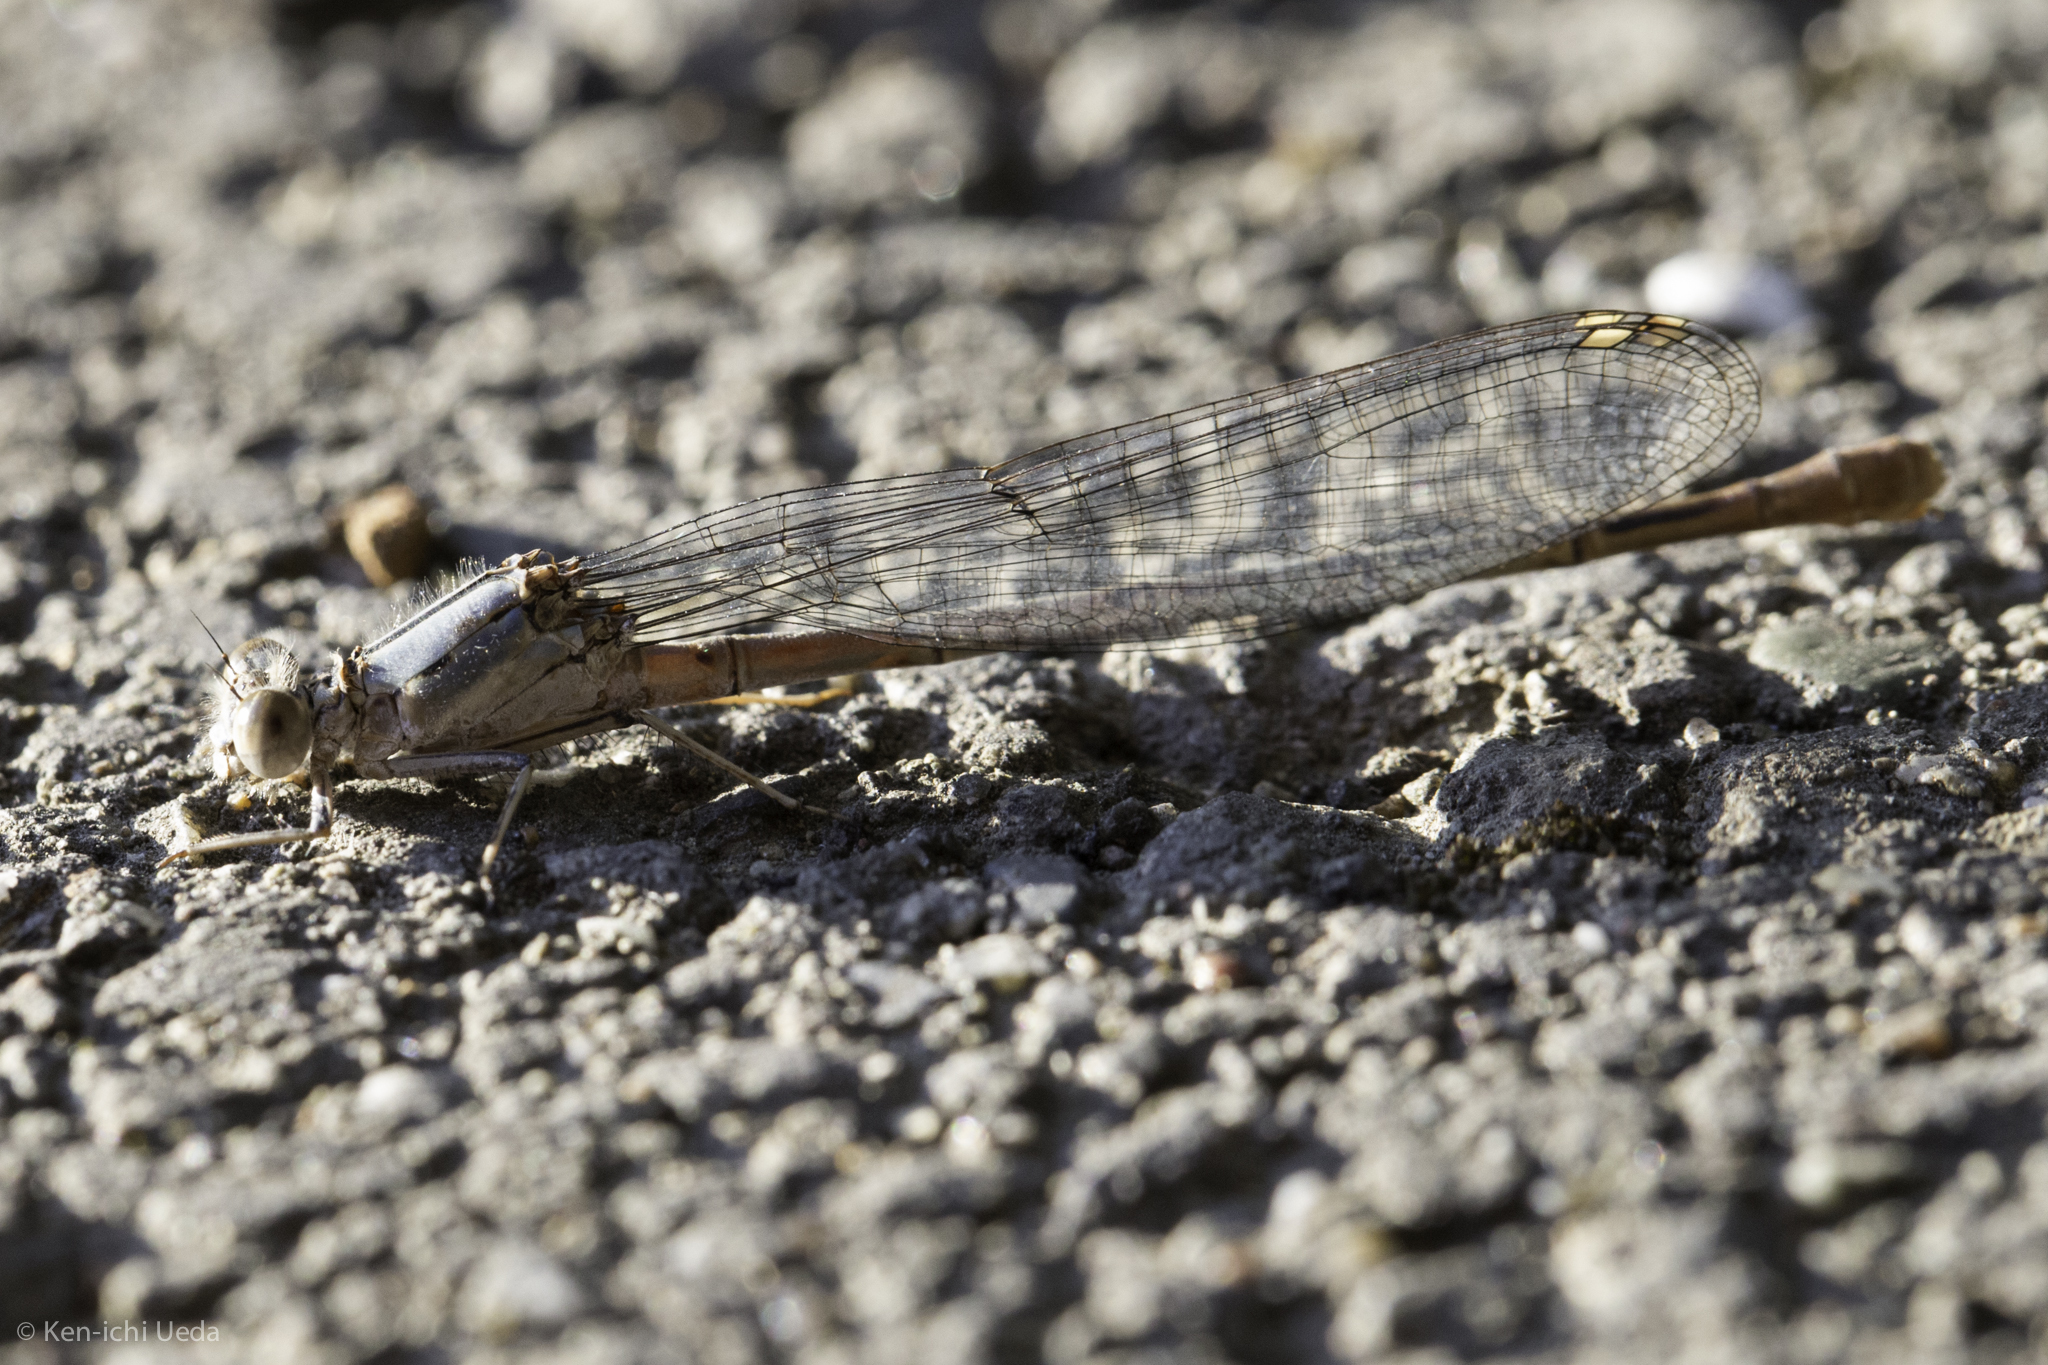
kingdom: Animalia
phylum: Arthropoda
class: Insecta
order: Odonata
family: Coenagrionidae
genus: Argia
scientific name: Argia emma
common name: Emma's dancer
